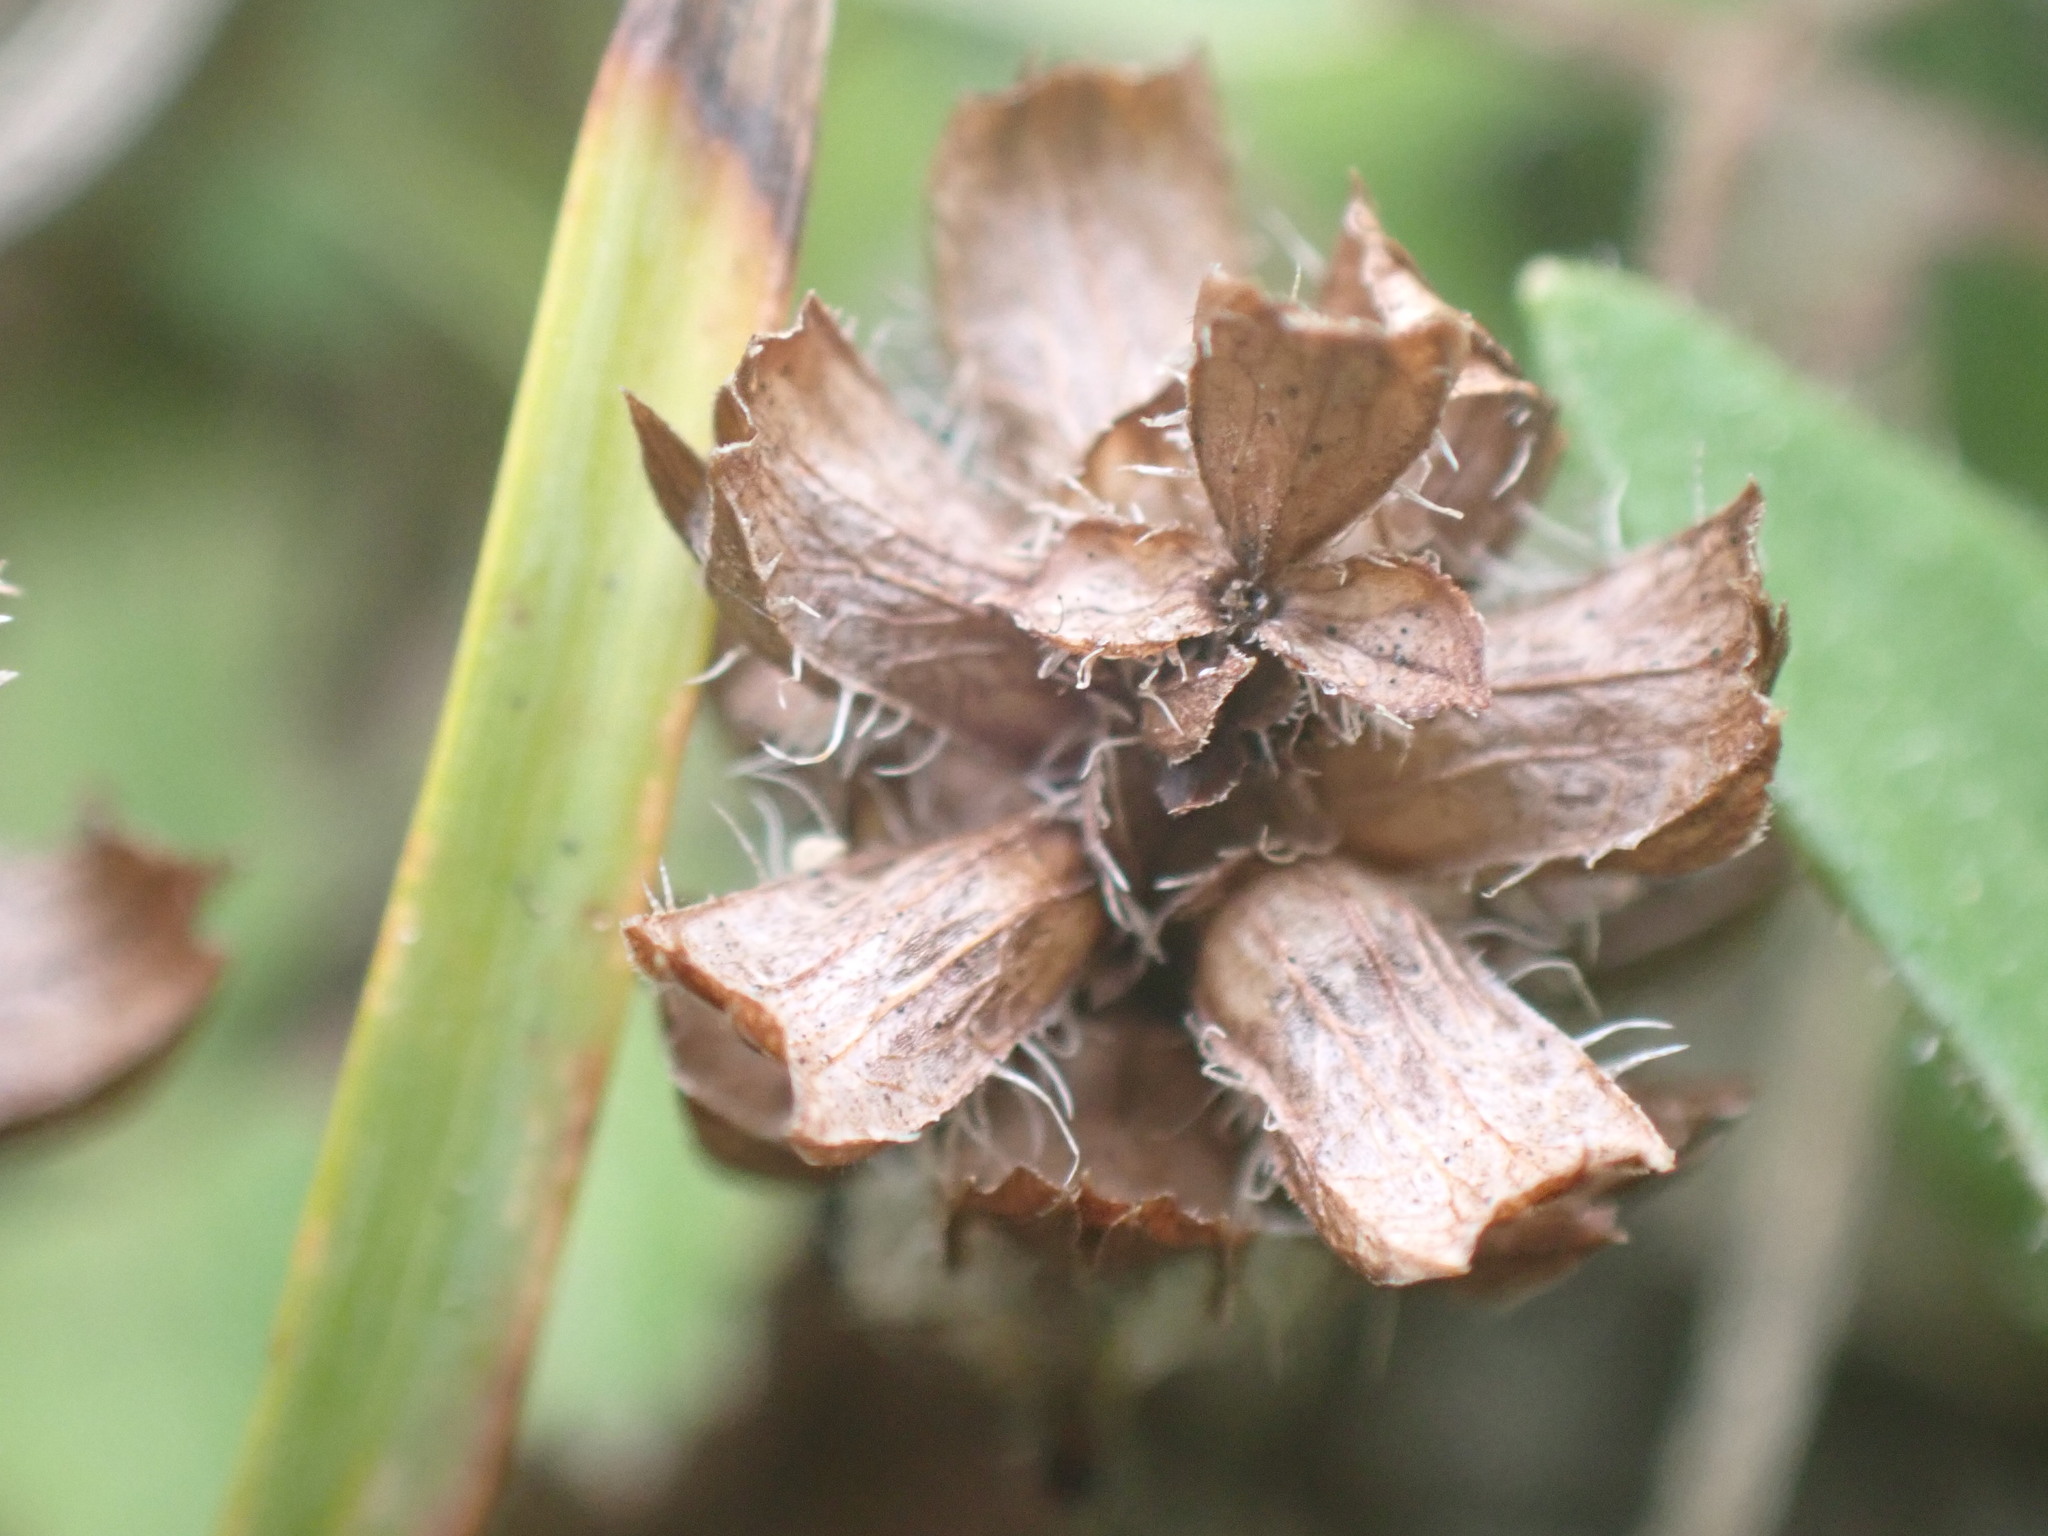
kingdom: Plantae
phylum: Tracheophyta
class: Magnoliopsida
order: Lamiales
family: Lamiaceae
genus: Prunella
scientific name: Prunella vulgaris
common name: Heal-all
